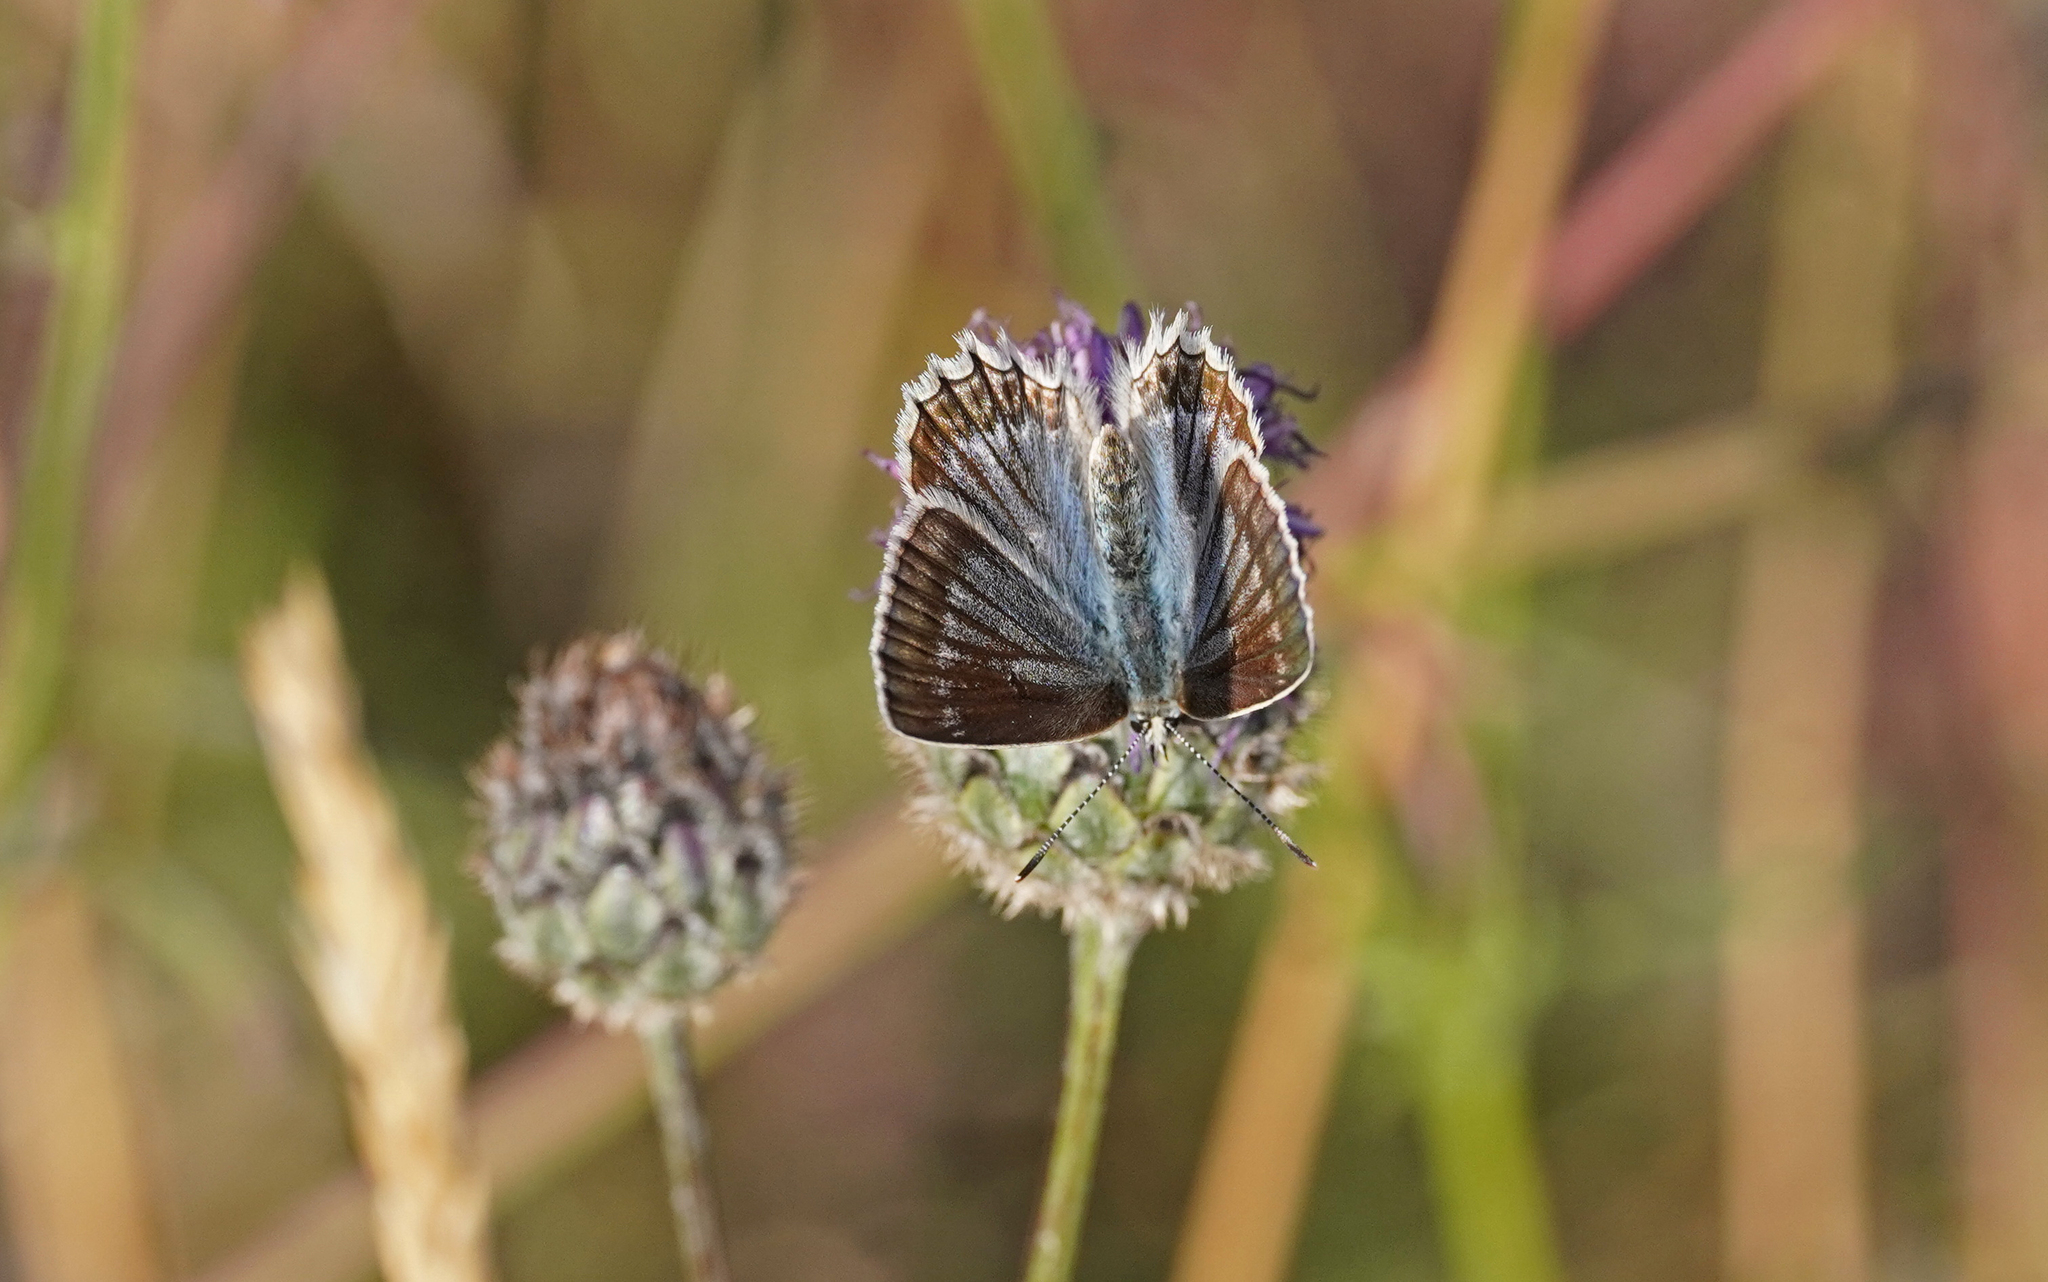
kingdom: Animalia
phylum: Arthropoda
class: Insecta
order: Lepidoptera
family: Lycaenidae
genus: Polyommatus
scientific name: Polyommatus daphnis
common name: Meleager's blue
